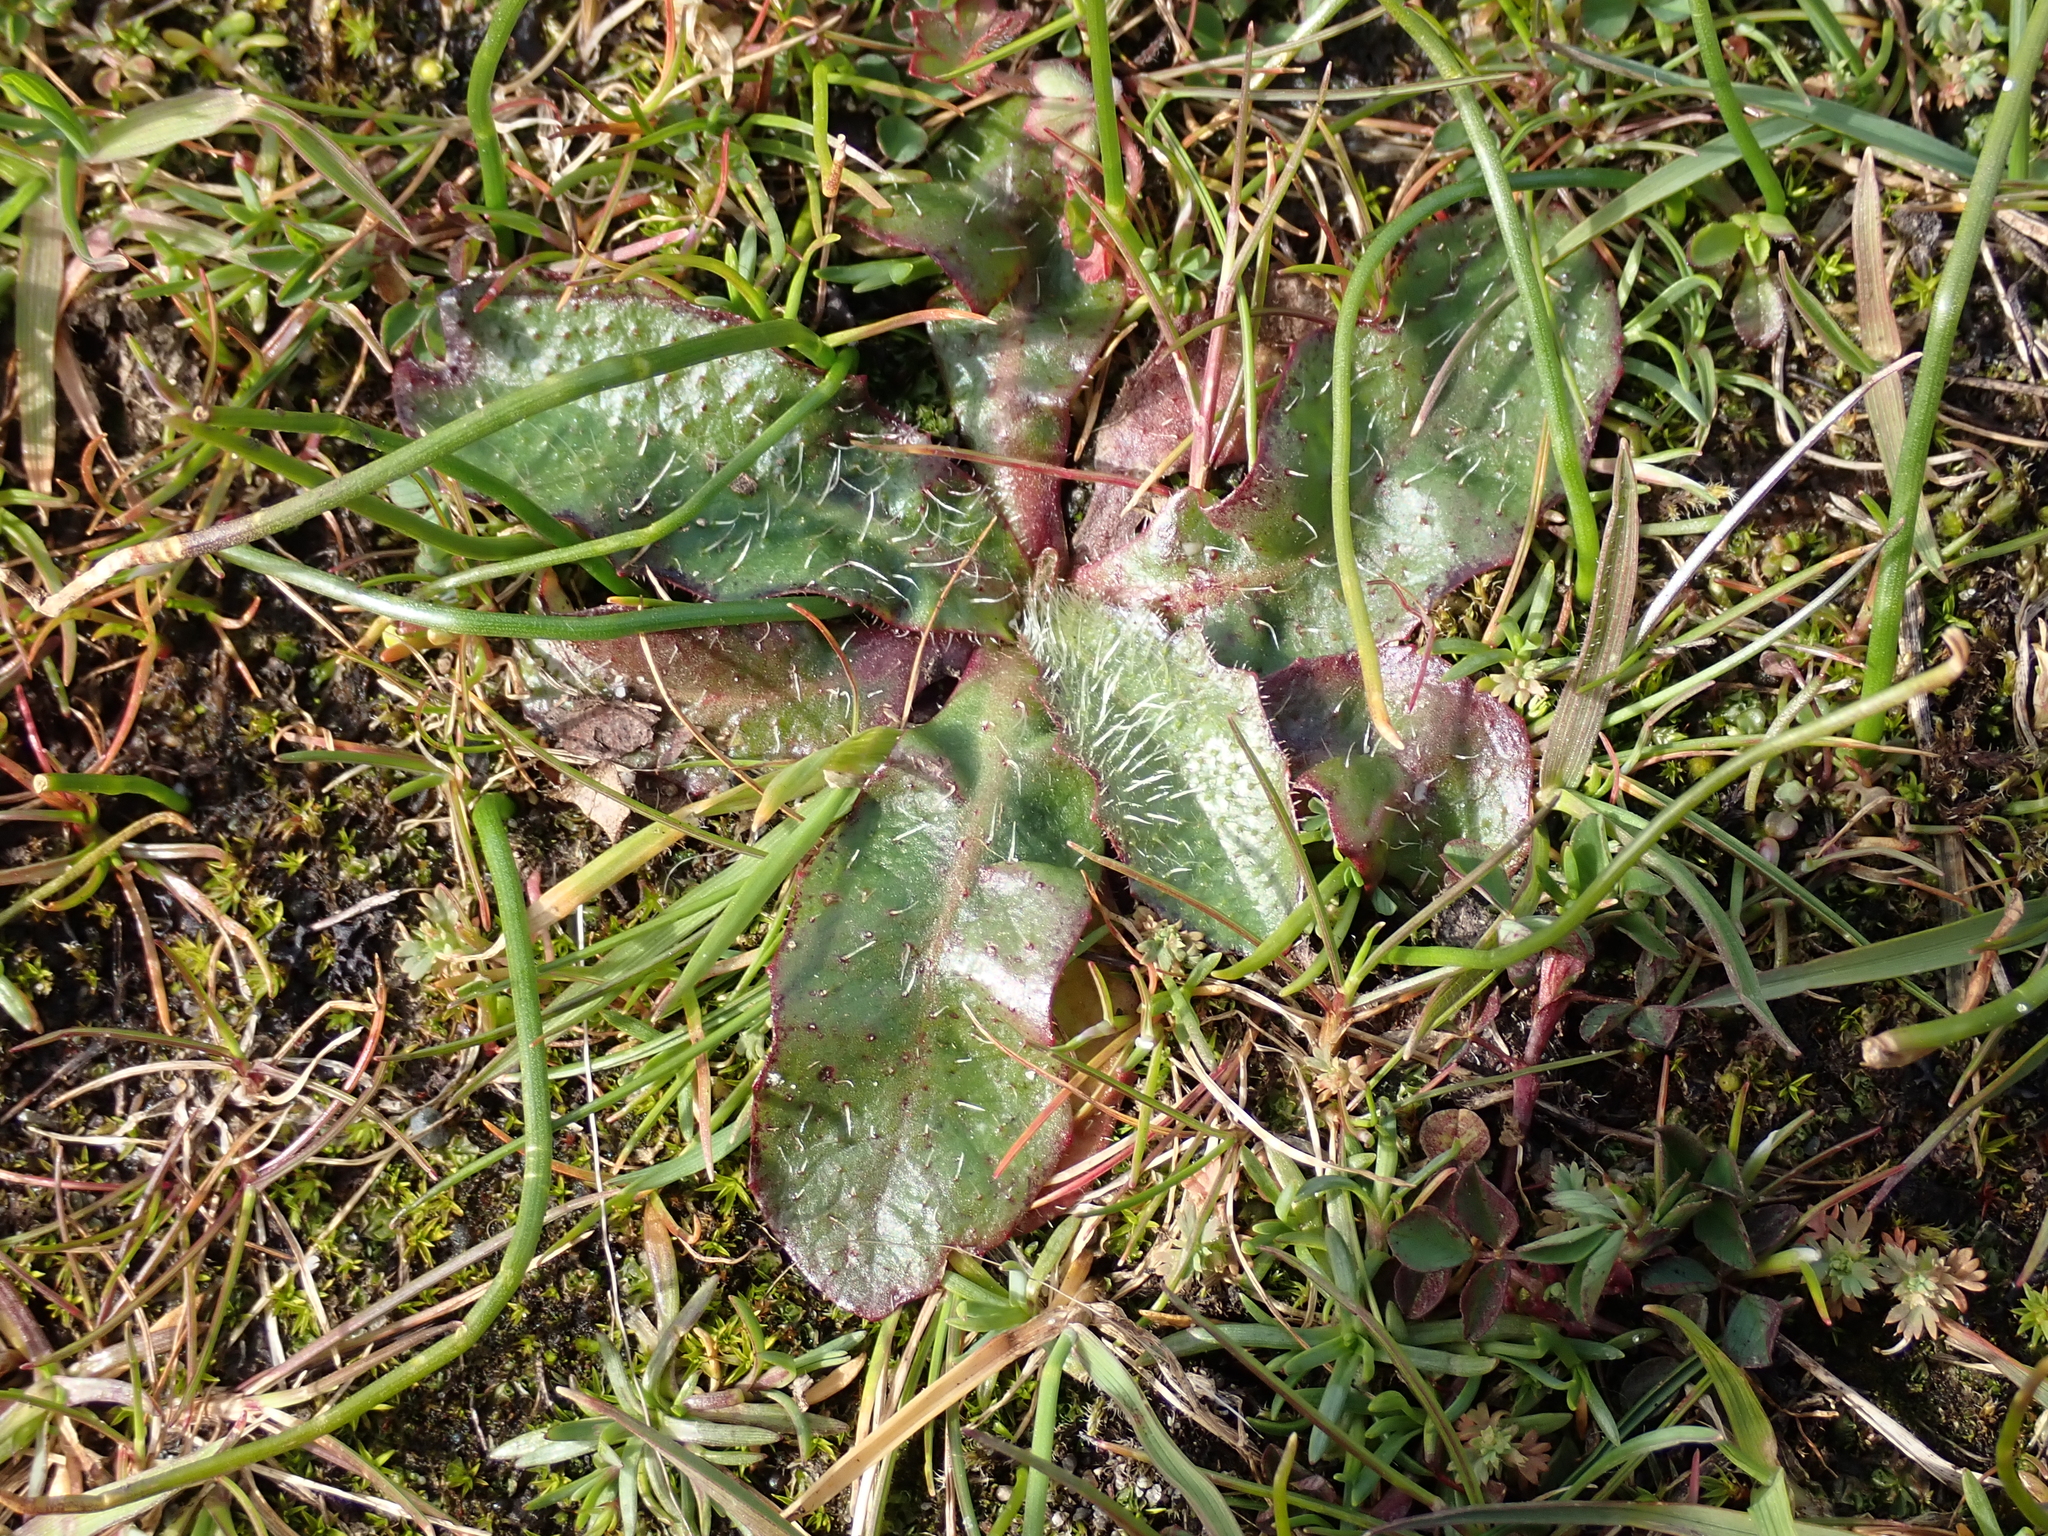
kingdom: Plantae
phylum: Tracheophyta
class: Magnoliopsida
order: Asterales
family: Asteraceae
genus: Hypochaeris
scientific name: Hypochaeris radicata
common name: Flatweed
